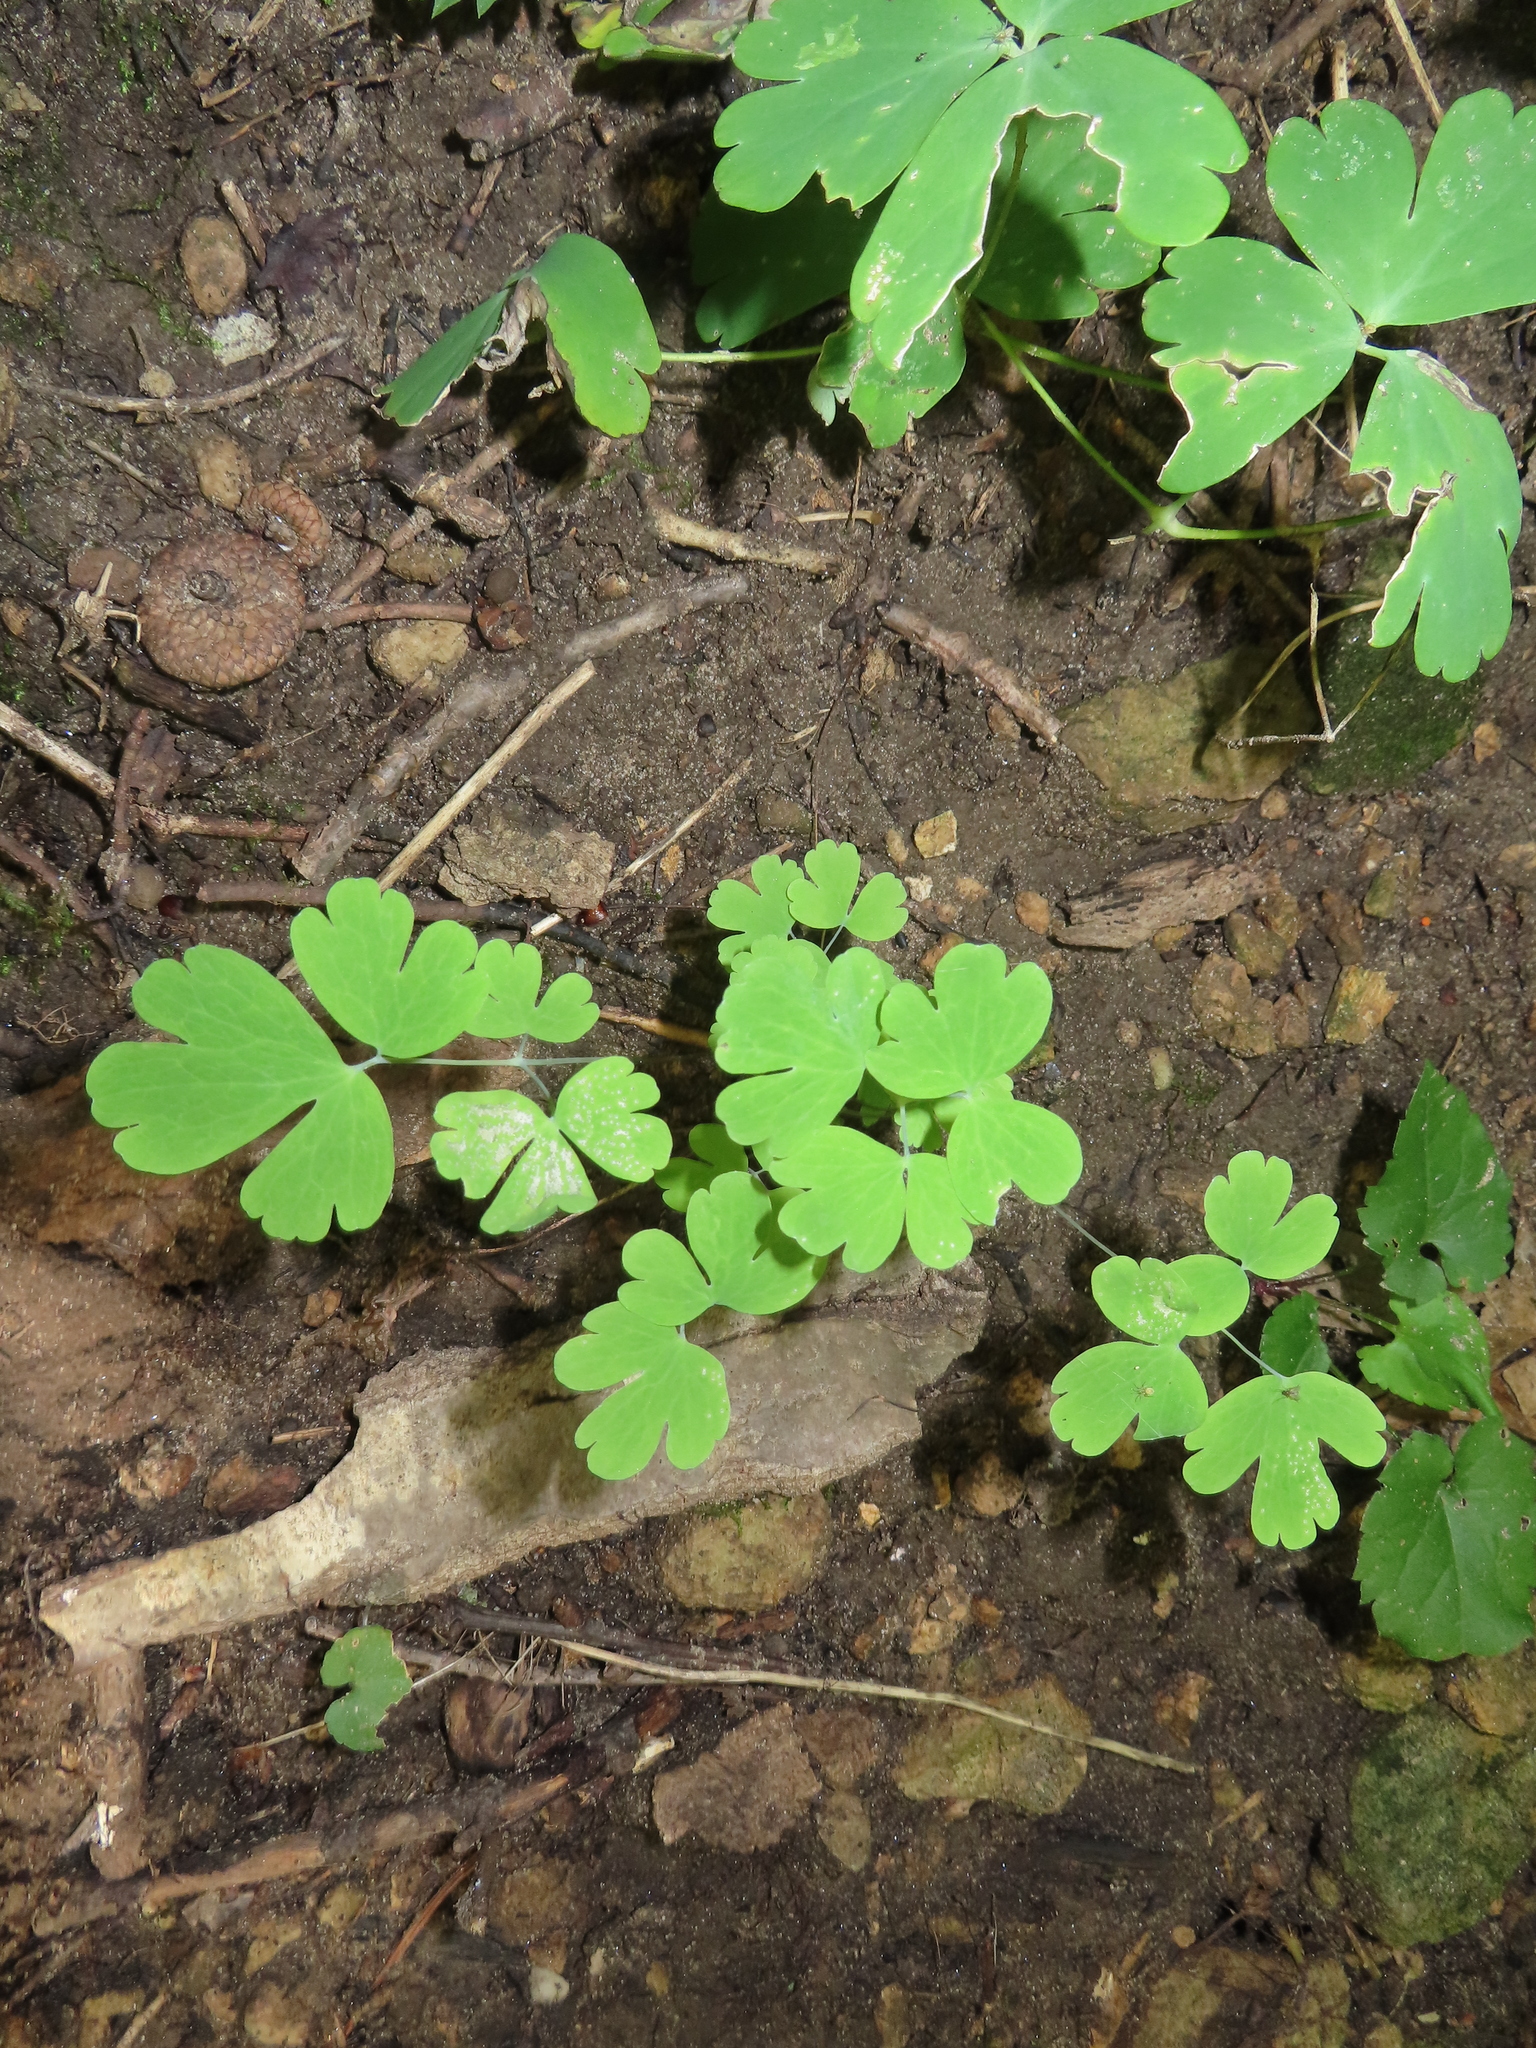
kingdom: Plantae
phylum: Tracheophyta
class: Magnoliopsida
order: Ranunculales
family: Ranunculaceae
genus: Aquilegia
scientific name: Aquilegia canadensis
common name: American columbine
